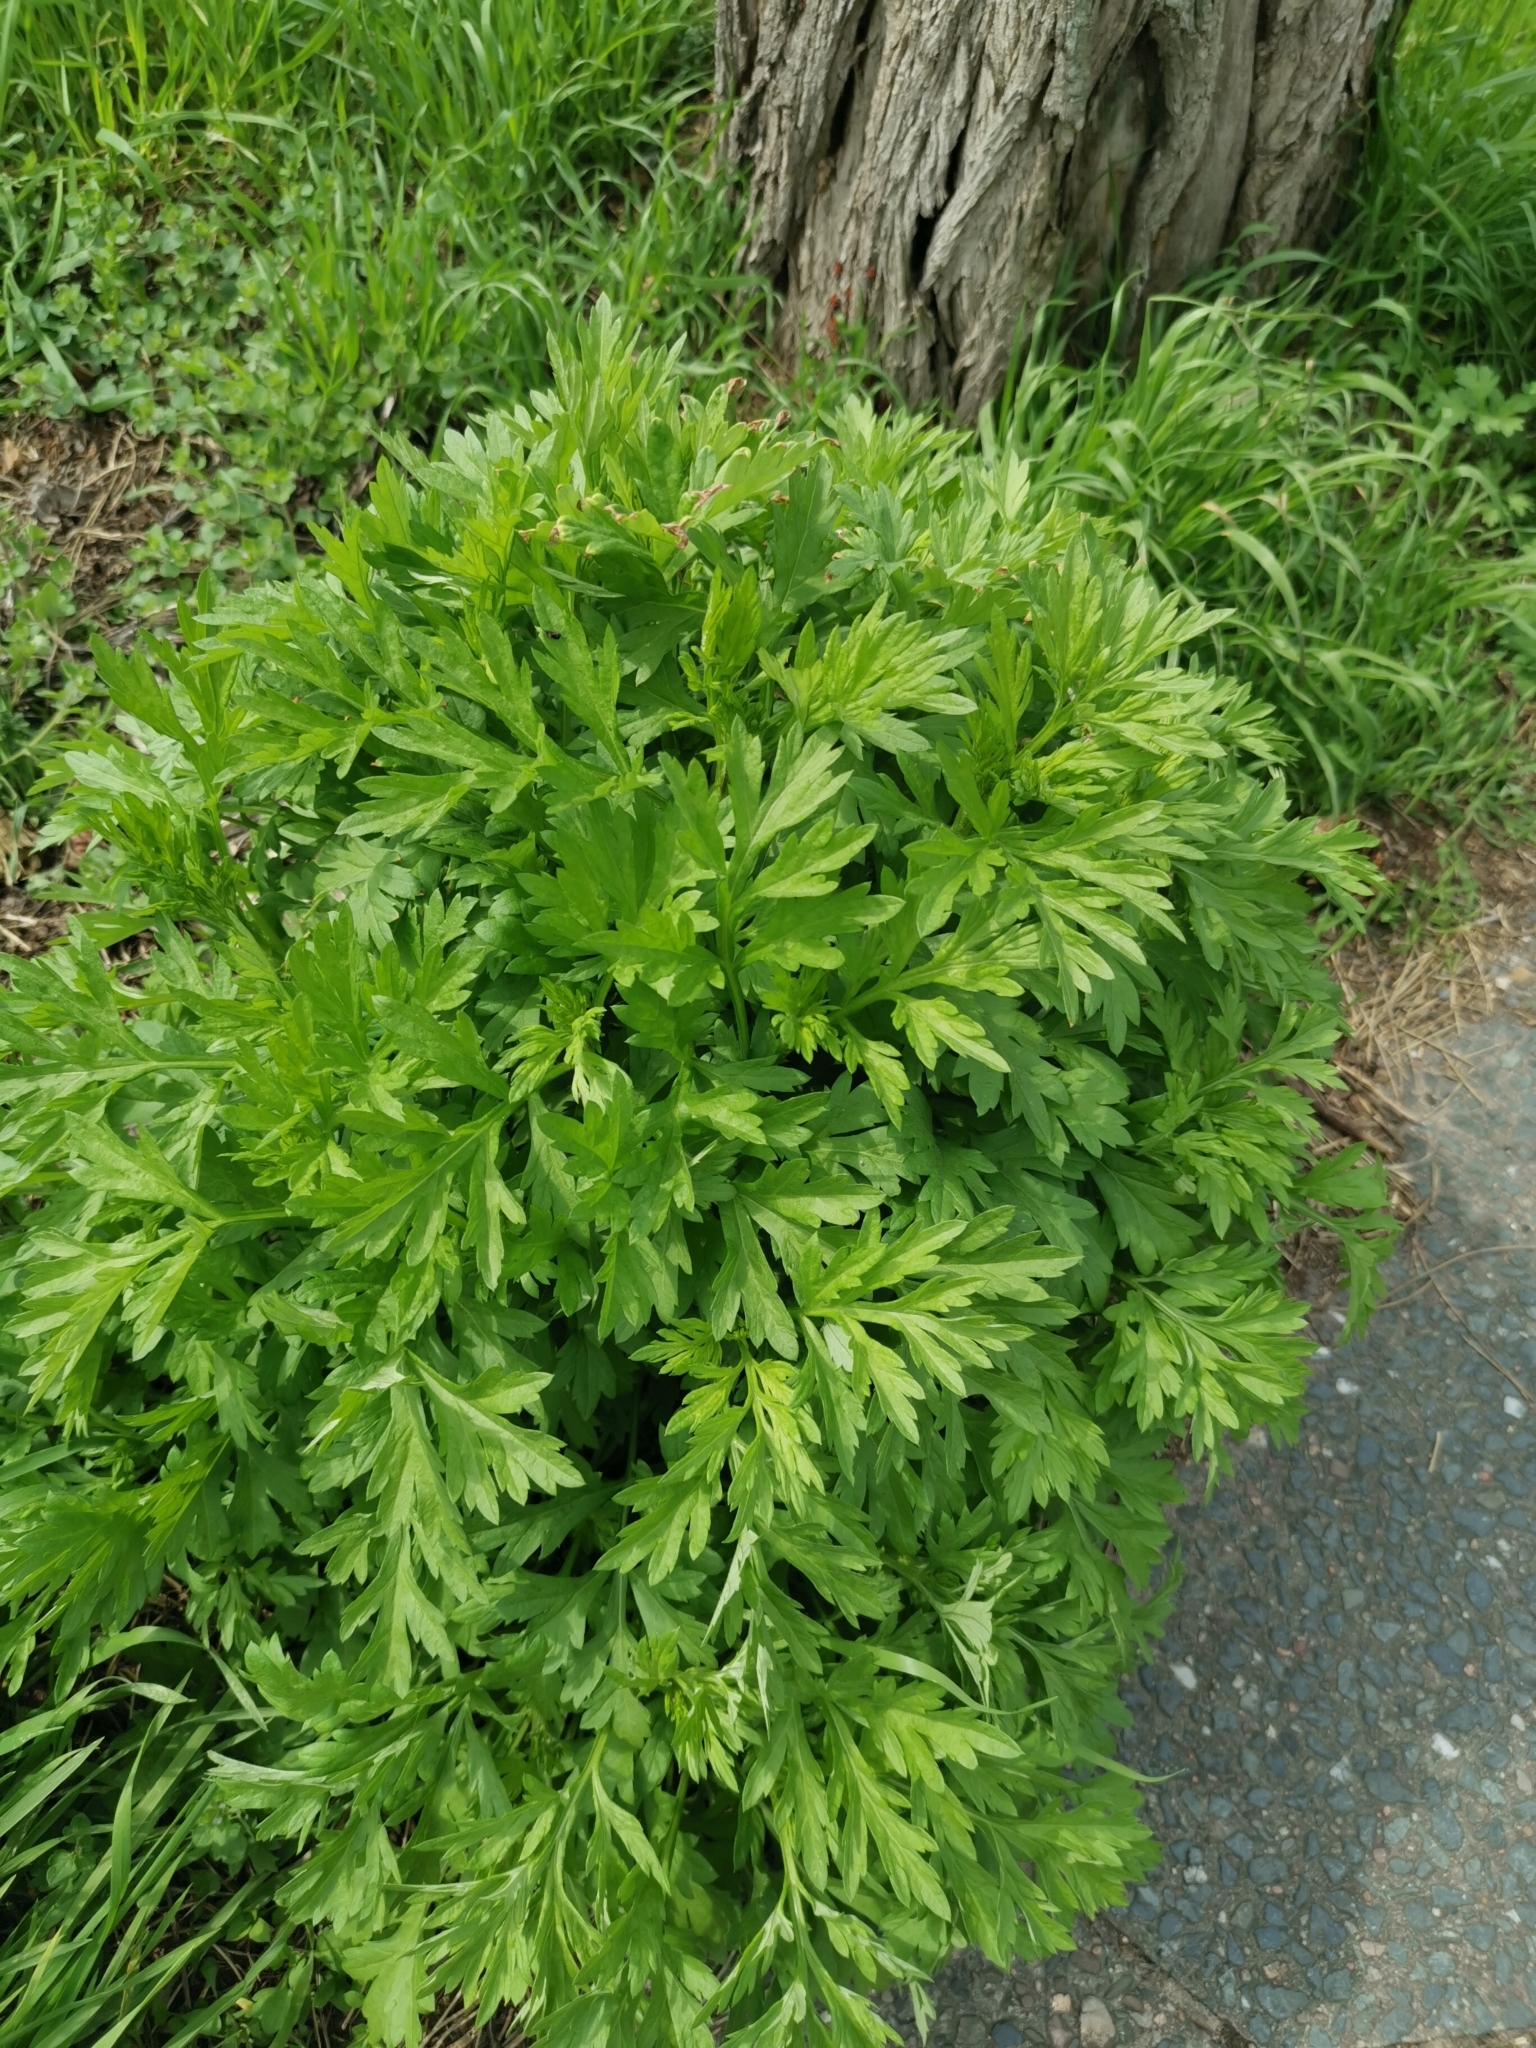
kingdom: Plantae
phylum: Tracheophyta
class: Magnoliopsida
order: Asterales
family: Asteraceae
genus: Artemisia
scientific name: Artemisia vulgaris
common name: Mugwort
